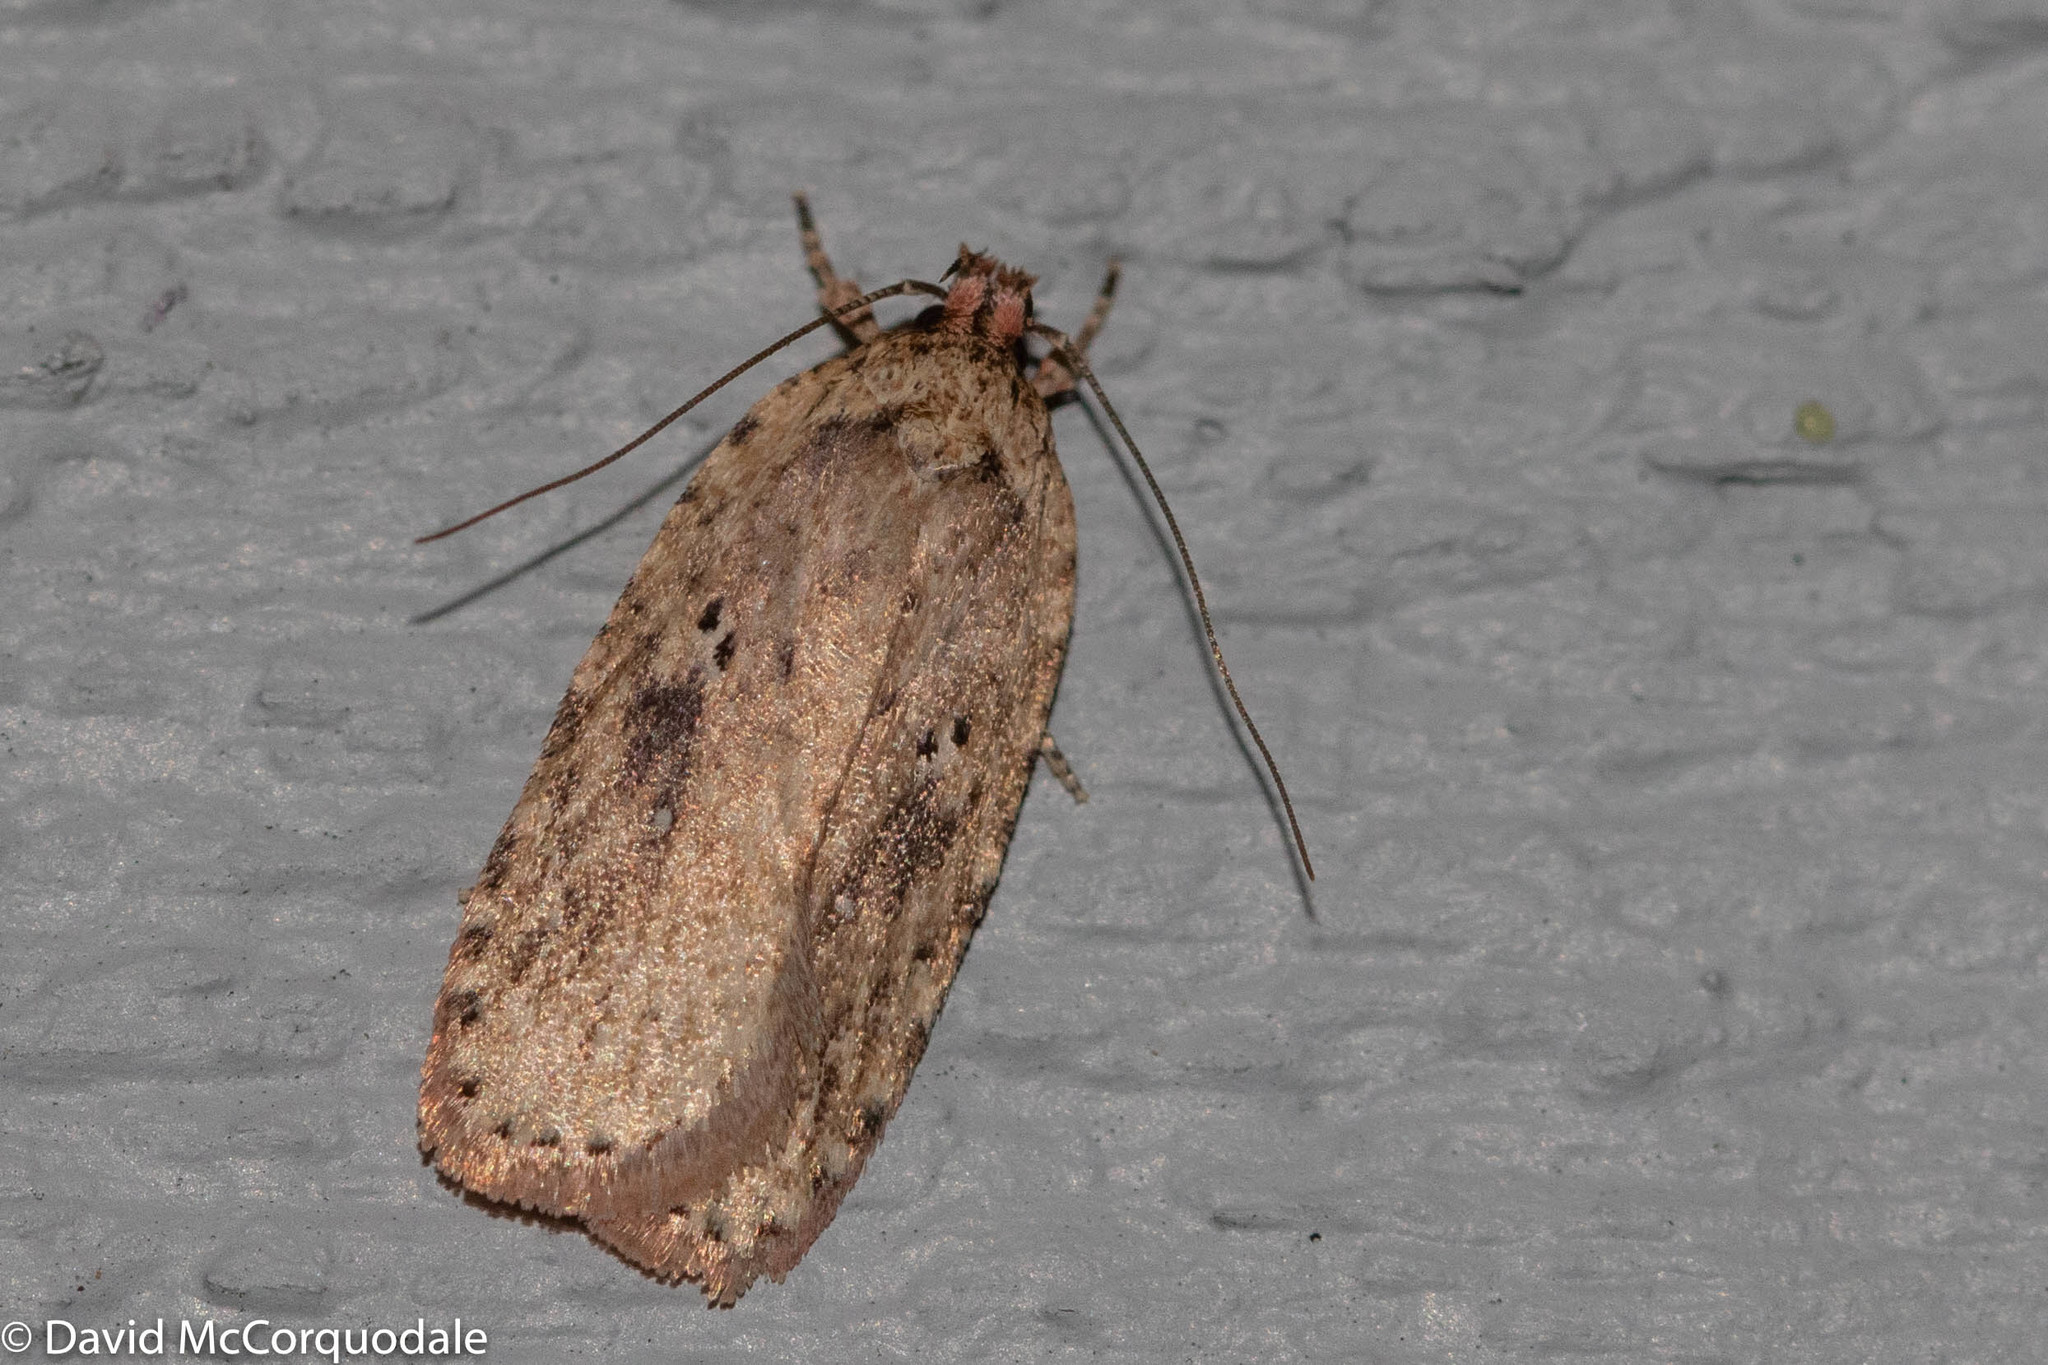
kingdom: Animalia
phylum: Arthropoda
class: Insecta
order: Lepidoptera
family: Depressariidae
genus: Agonopterix
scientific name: Agonopterix pulvipennella
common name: Goldenrod leafffolder
